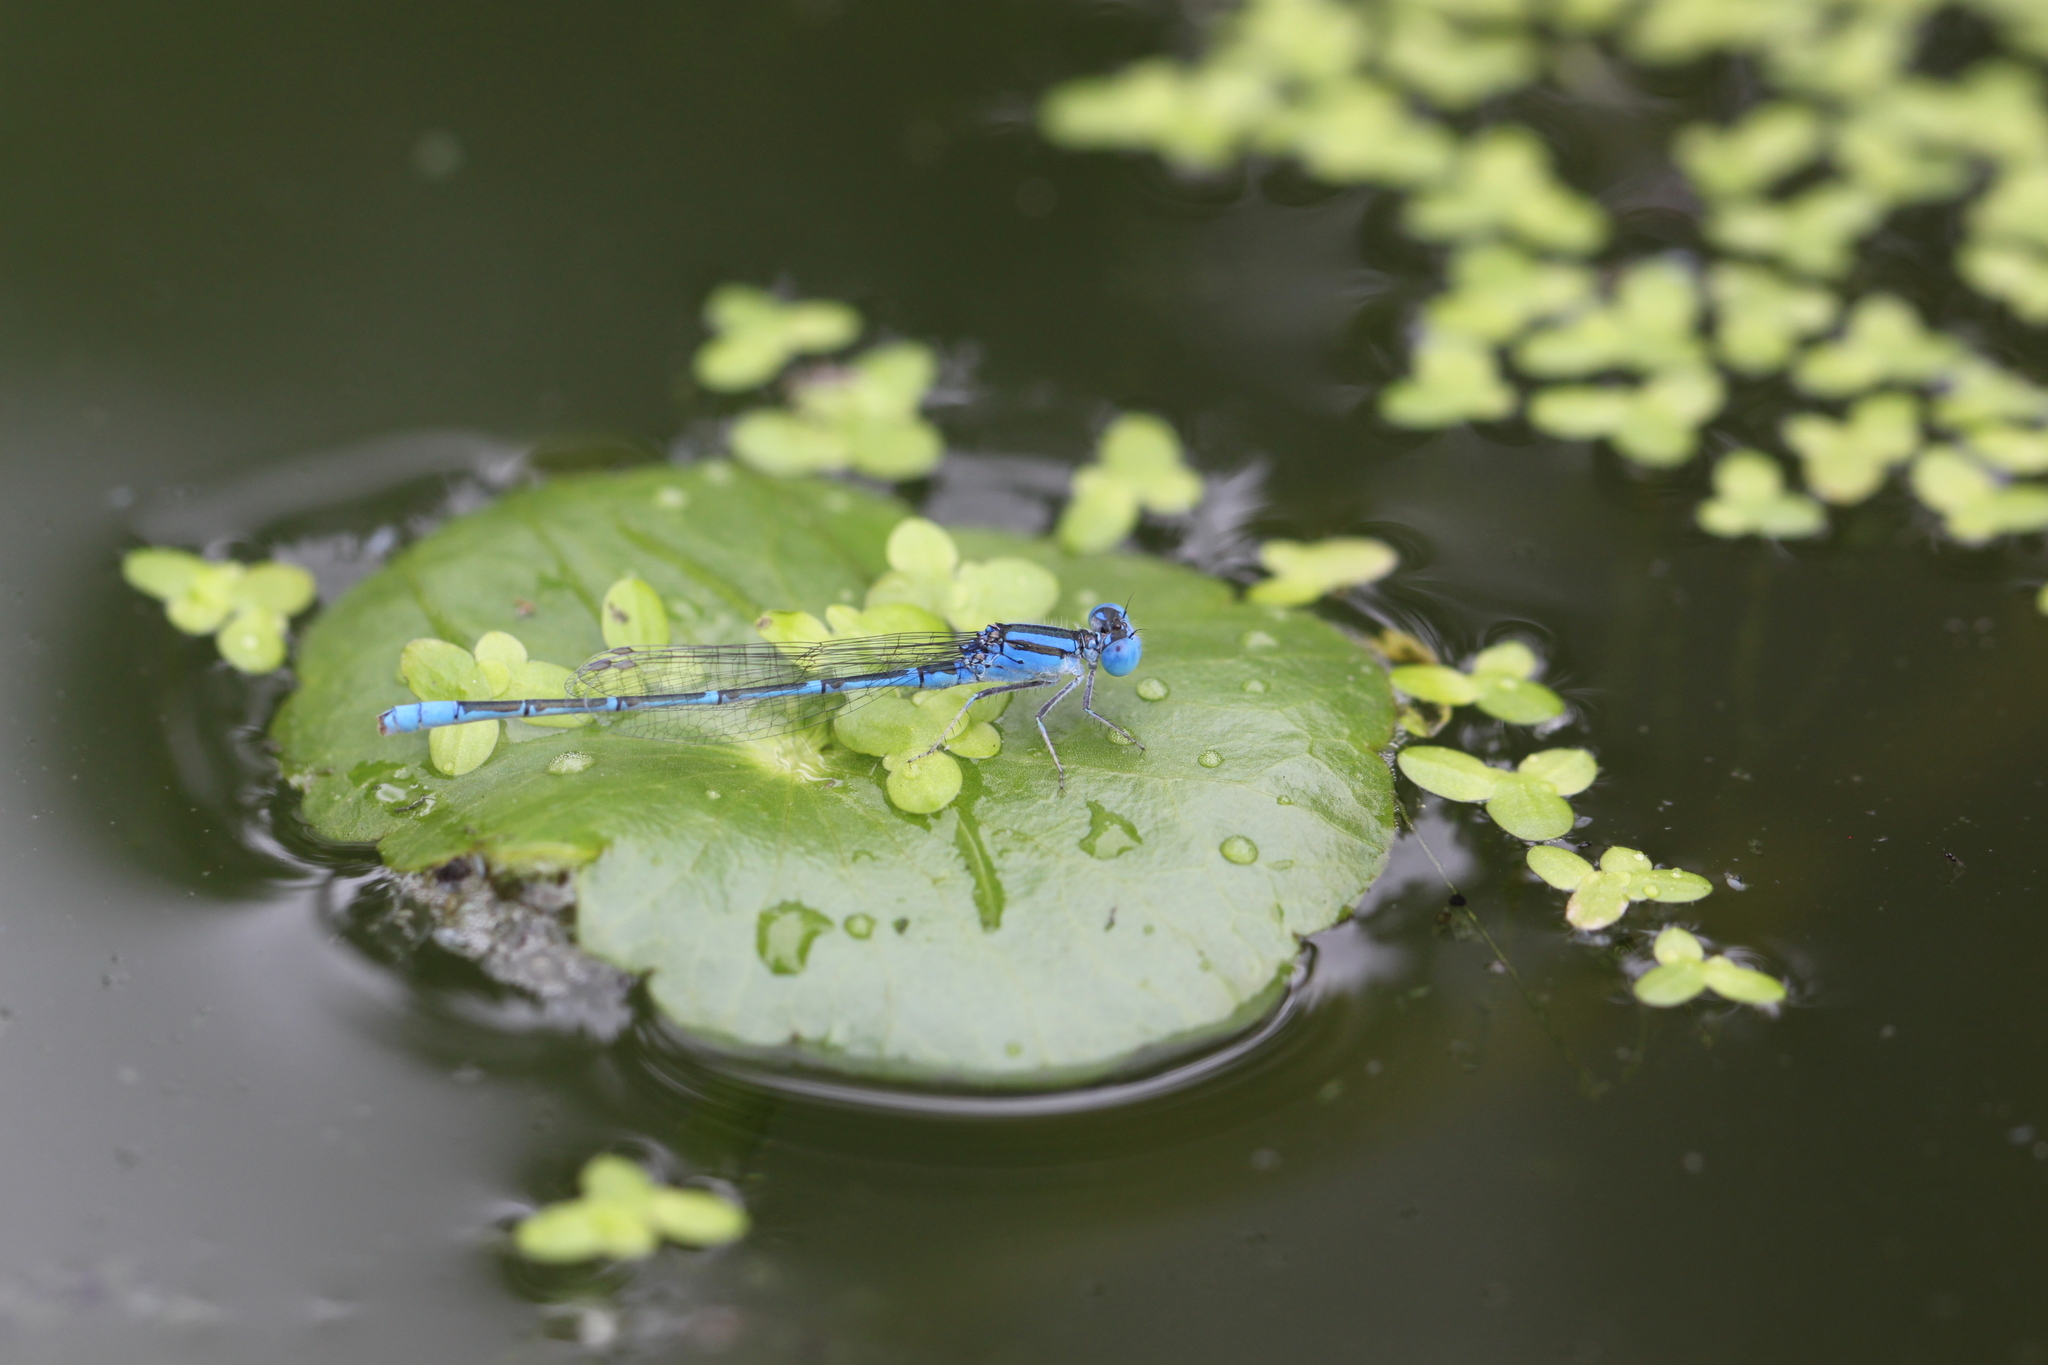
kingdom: Animalia
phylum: Arthropoda
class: Insecta
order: Odonata
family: Coenagrionidae
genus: Paracercion
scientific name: Paracercion melanotum
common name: Eastern lilysquatter
